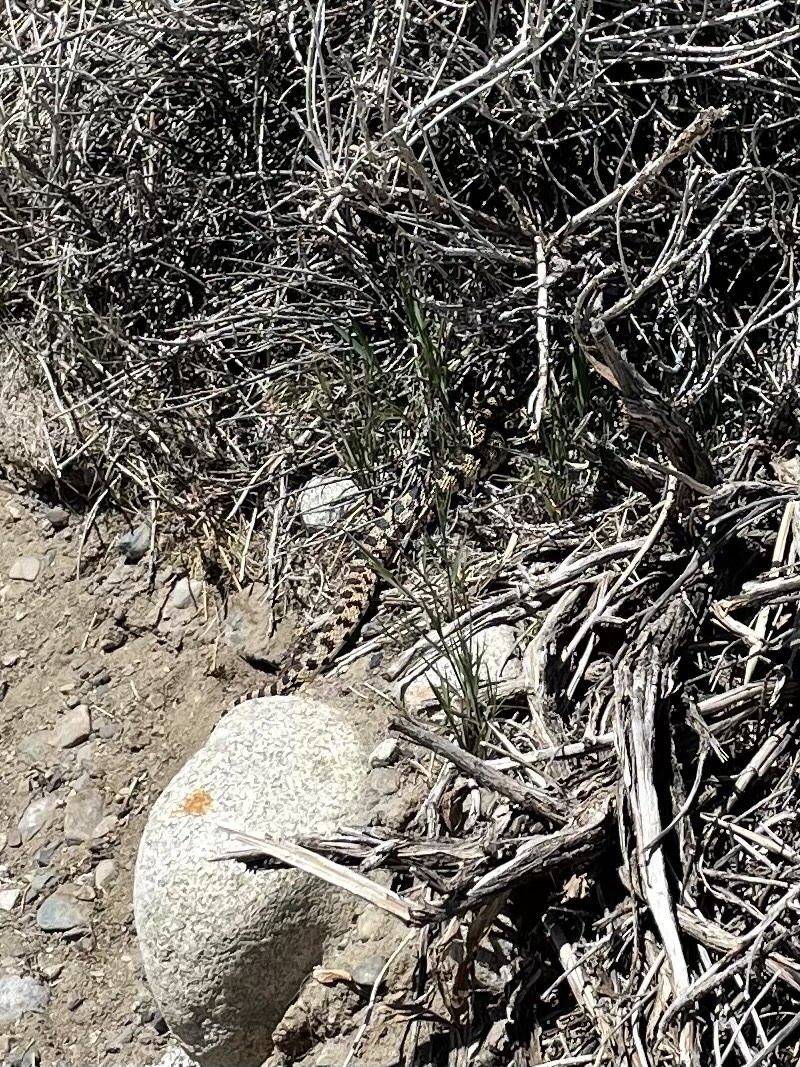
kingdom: Animalia
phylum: Chordata
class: Squamata
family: Colubridae
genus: Pituophis
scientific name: Pituophis catenifer
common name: Gopher snake
